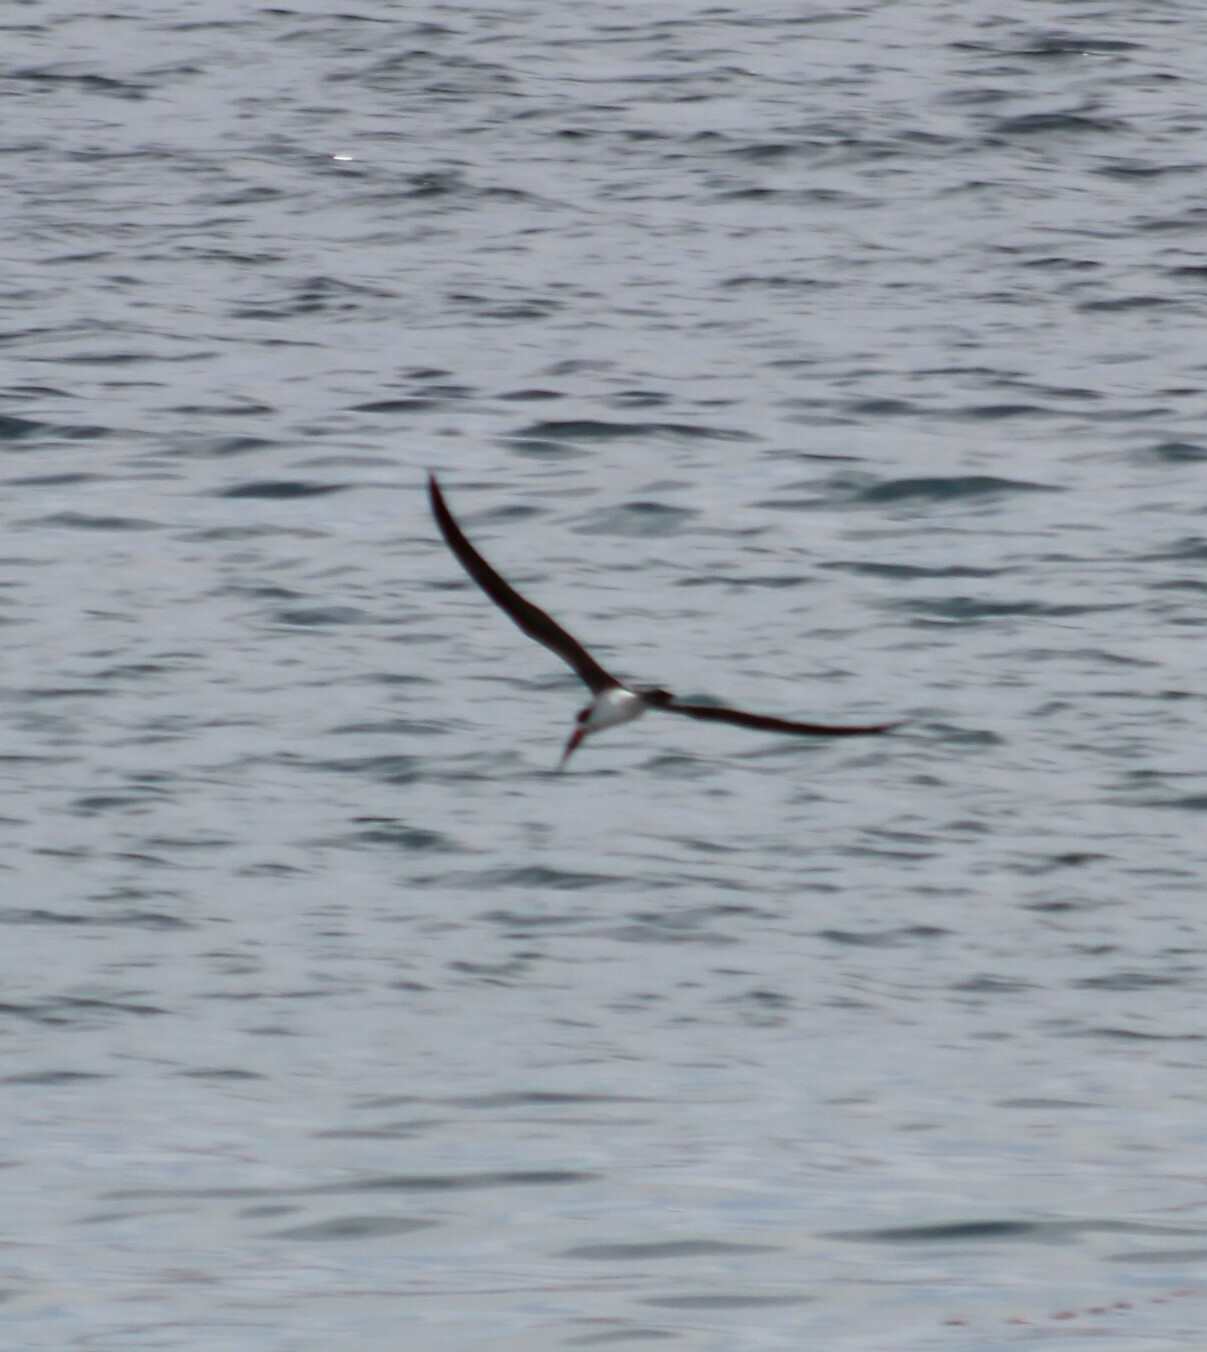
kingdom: Animalia
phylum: Chordata
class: Aves
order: Charadriiformes
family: Laridae
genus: Rynchops
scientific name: Rynchops niger
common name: Black skimmer
